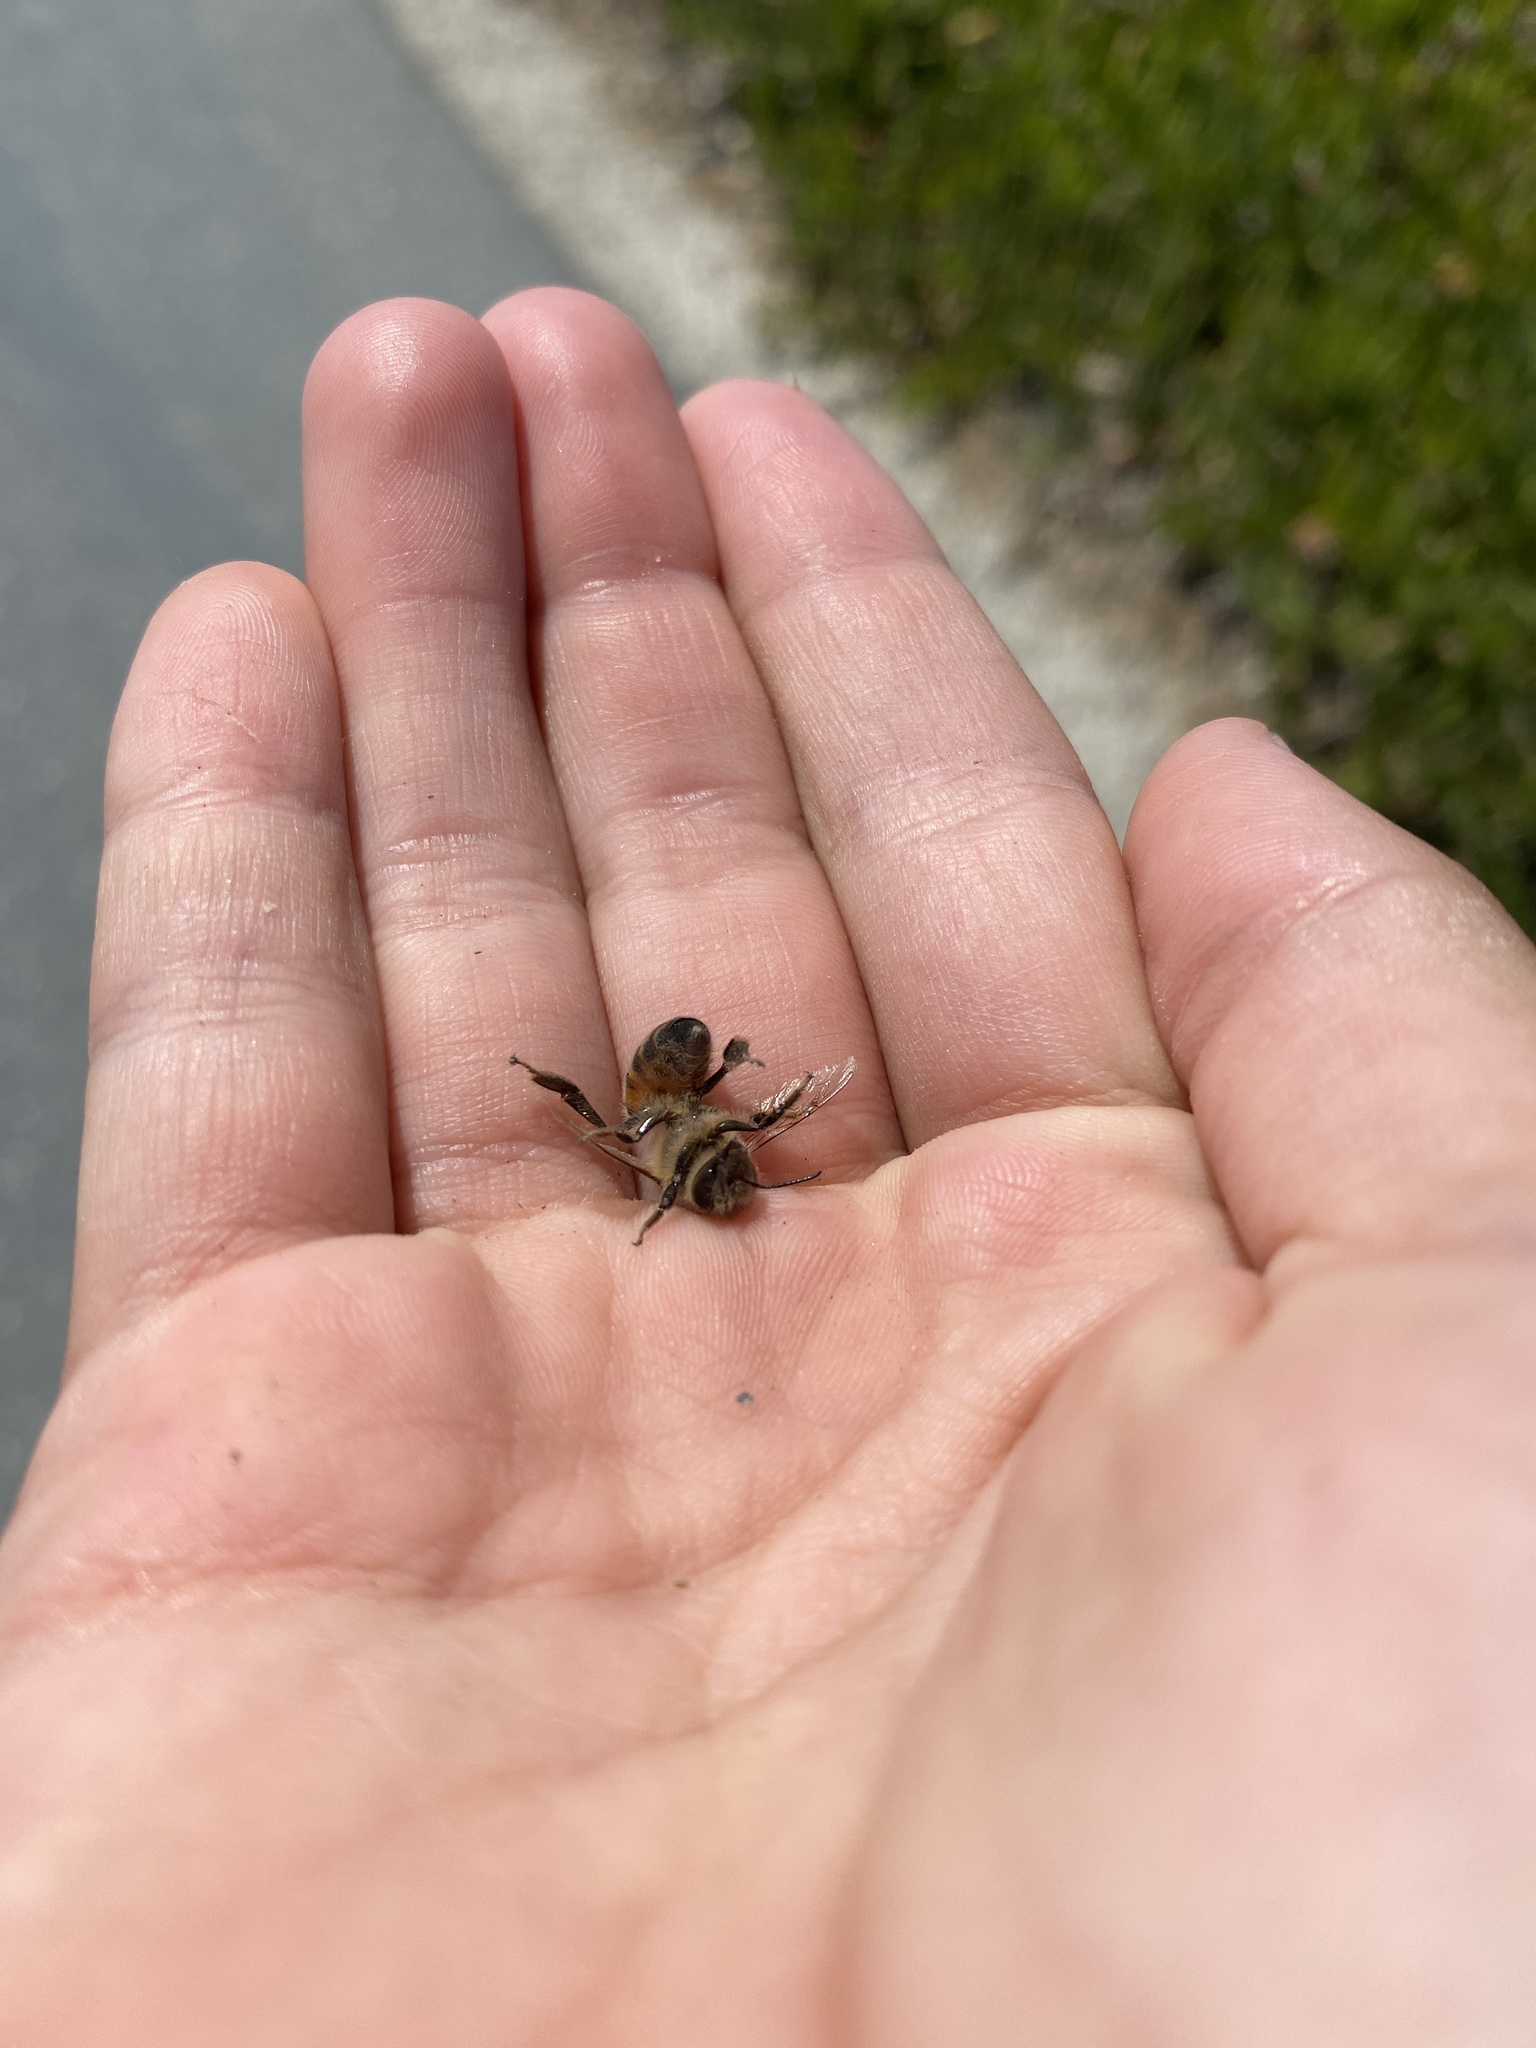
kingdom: Animalia
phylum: Arthropoda
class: Insecta
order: Hymenoptera
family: Apidae
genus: Apis
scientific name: Apis mellifera
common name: Honey bee
